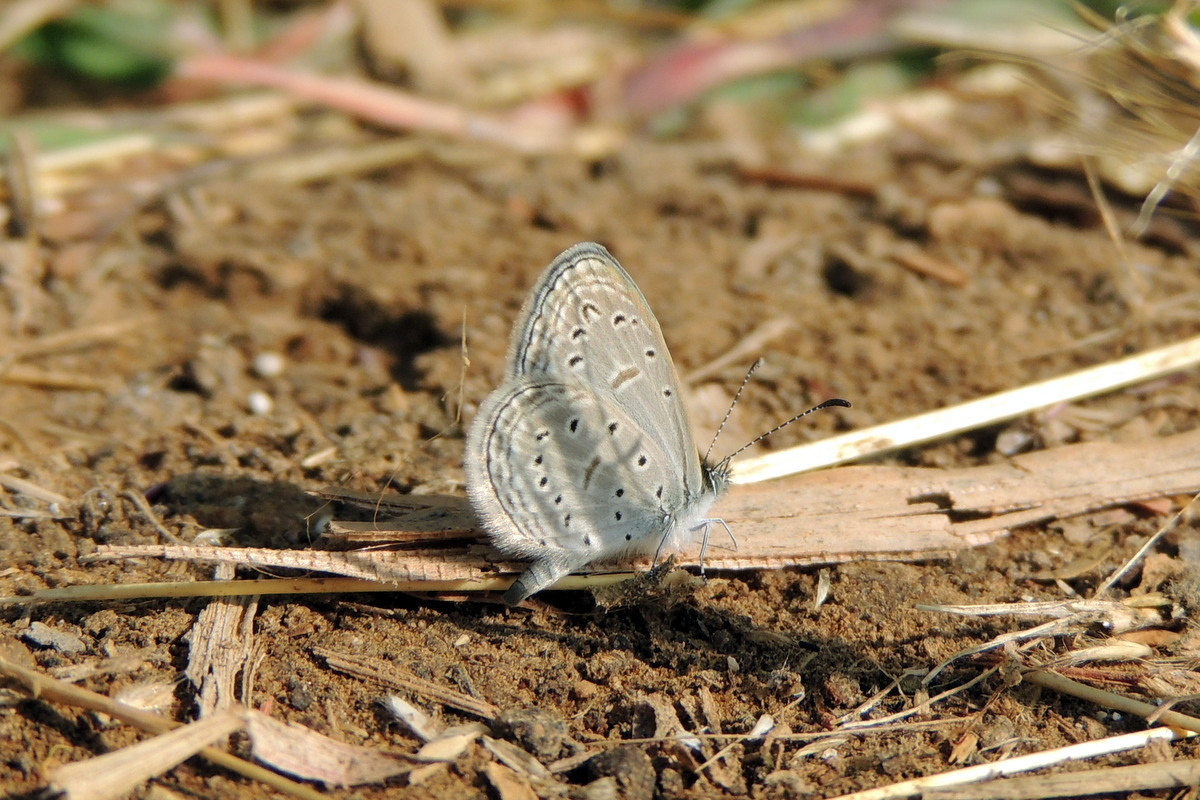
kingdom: Animalia
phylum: Arthropoda
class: Insecta
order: Lepidoptera
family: Lycaenidae
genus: Zizula
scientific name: Zizula hylax
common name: Gaika blue
